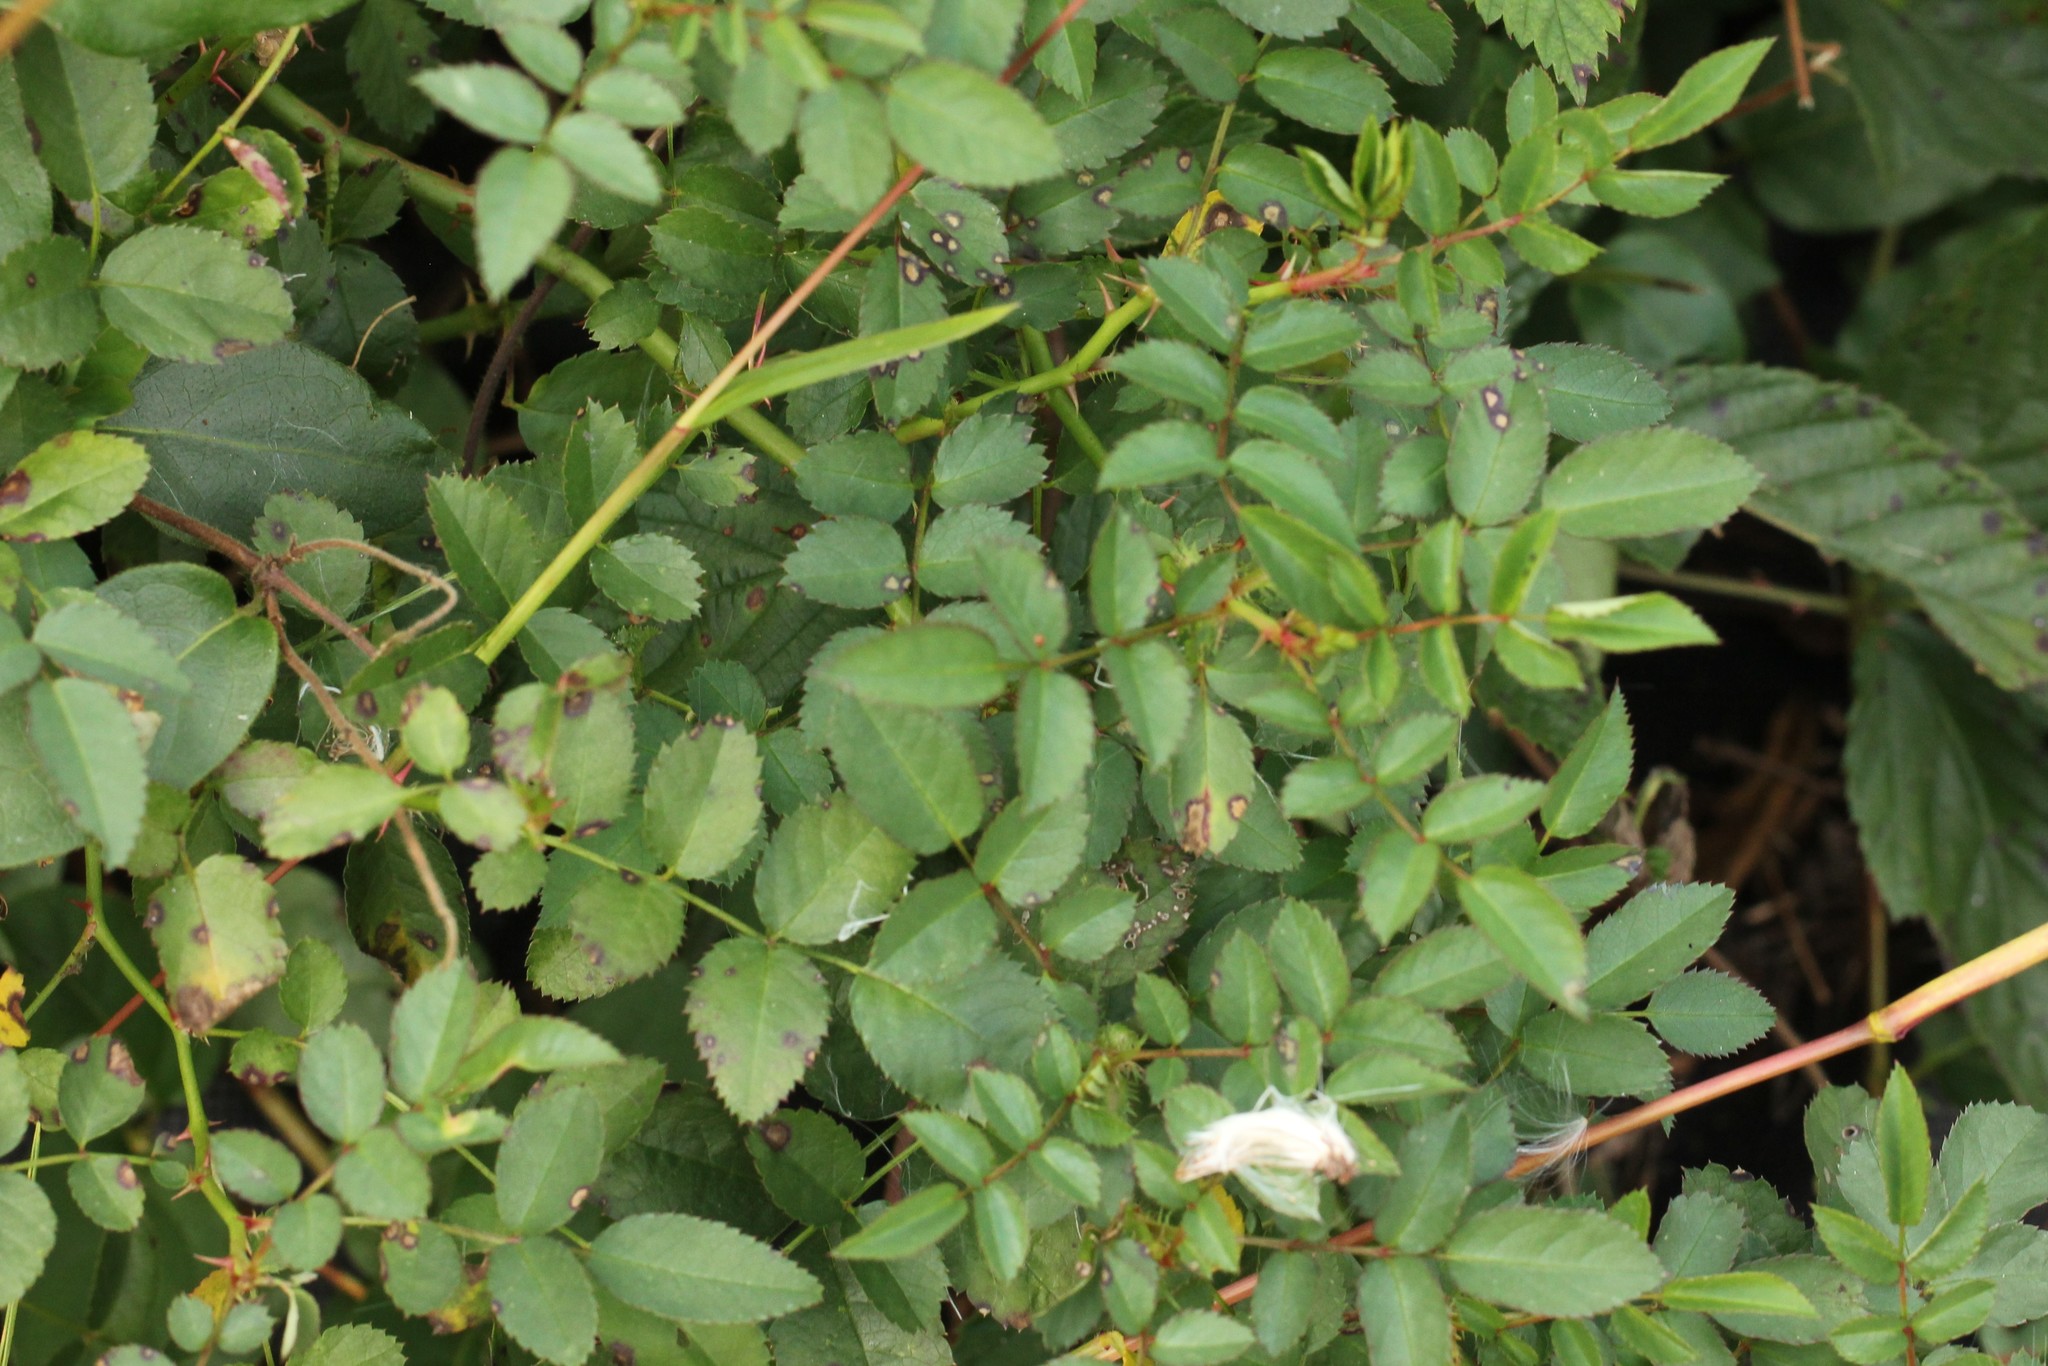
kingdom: Plantae
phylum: Tracheophyta
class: Magnoliopsida
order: Rosales
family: Rosaceae
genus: Rosa
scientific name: Rosa multiflora
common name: Multiflora rose
